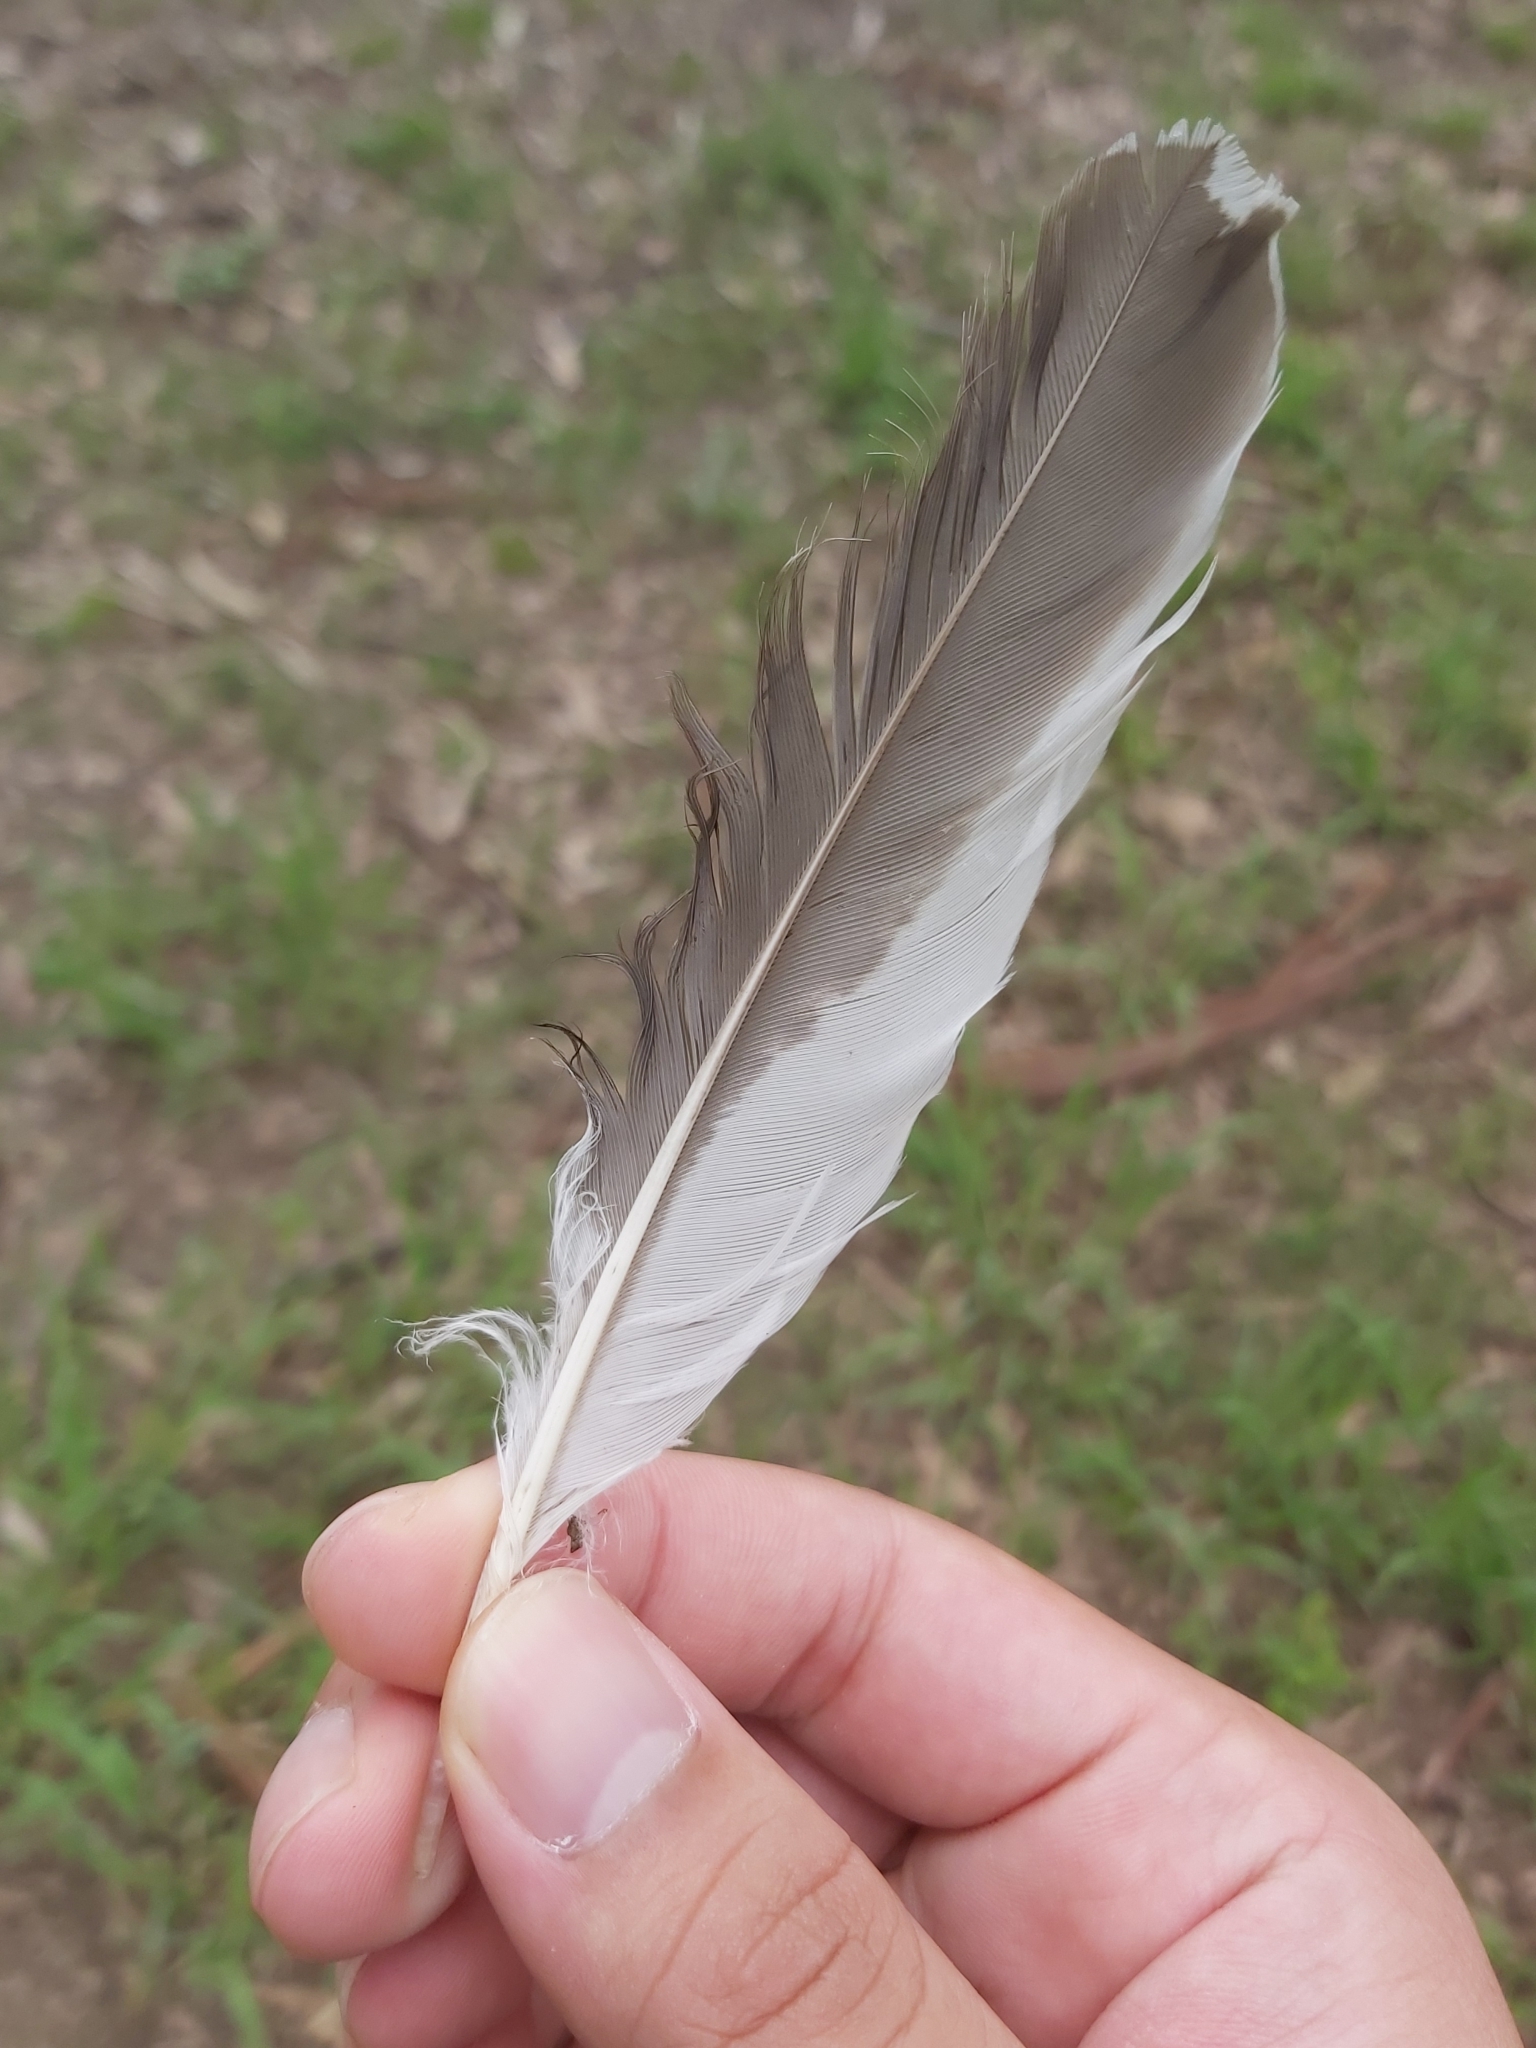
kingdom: Animalia
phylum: Chordata
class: Aves
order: Coraciiformes
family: Alcedinidae
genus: Dacelo
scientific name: Dacelo novaeguineae
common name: Laughing kookaburra
